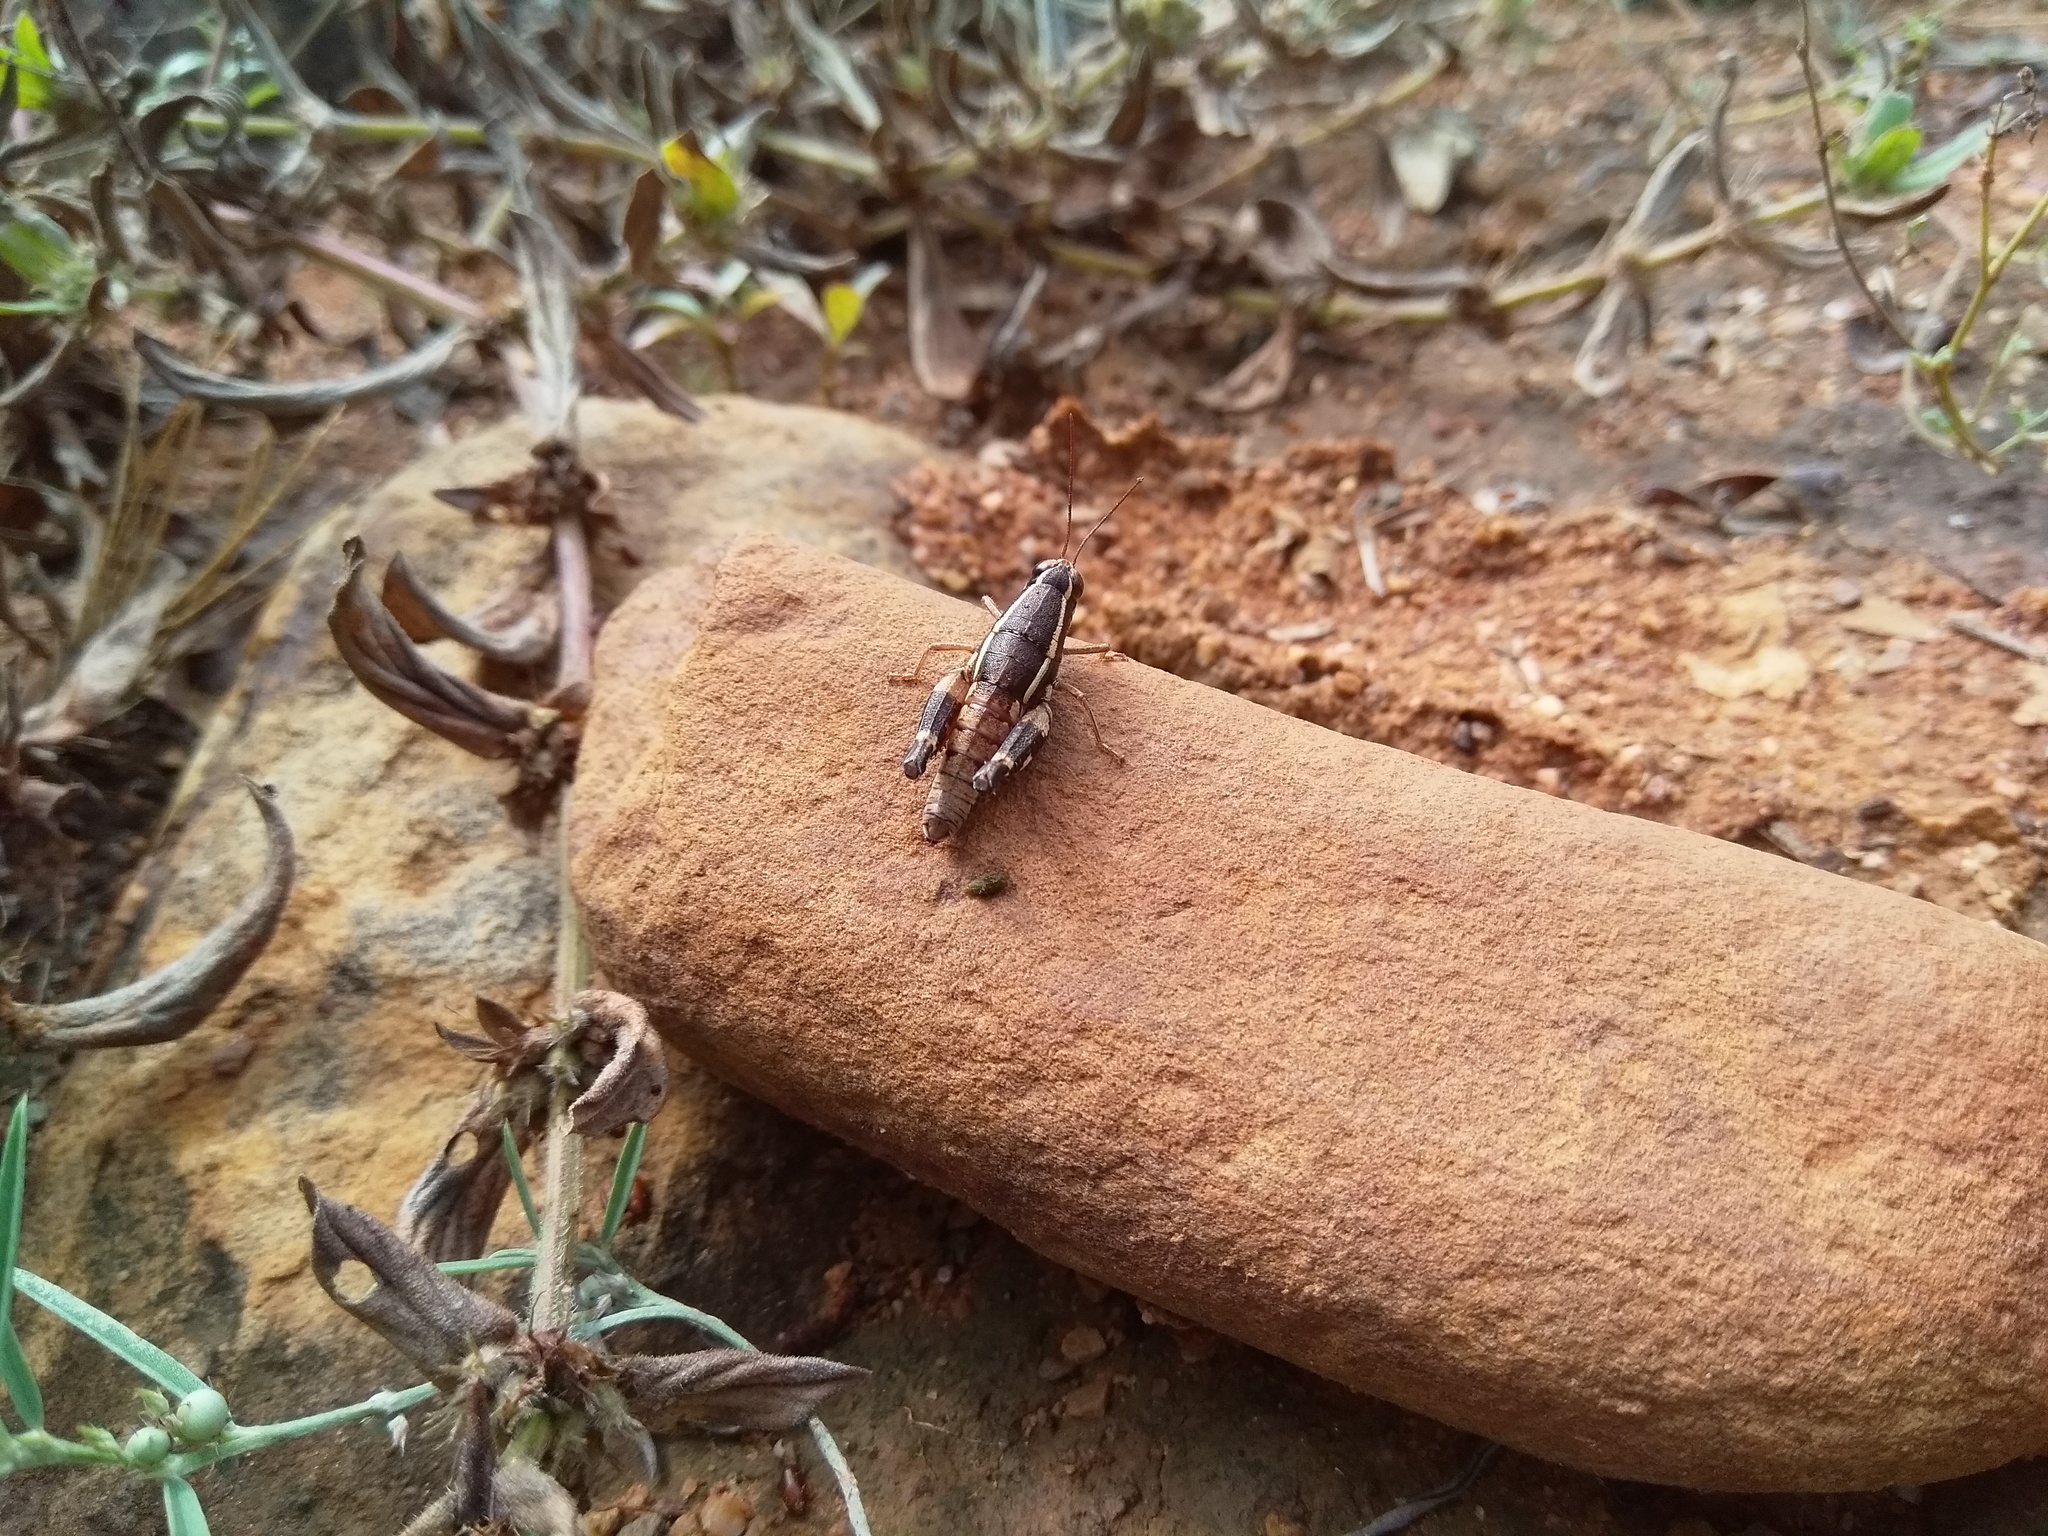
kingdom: Animalia
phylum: Arthropoda
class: Insecta
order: Orthoptera
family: Acrididae
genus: Opharicus
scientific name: Opharicus ballardi
